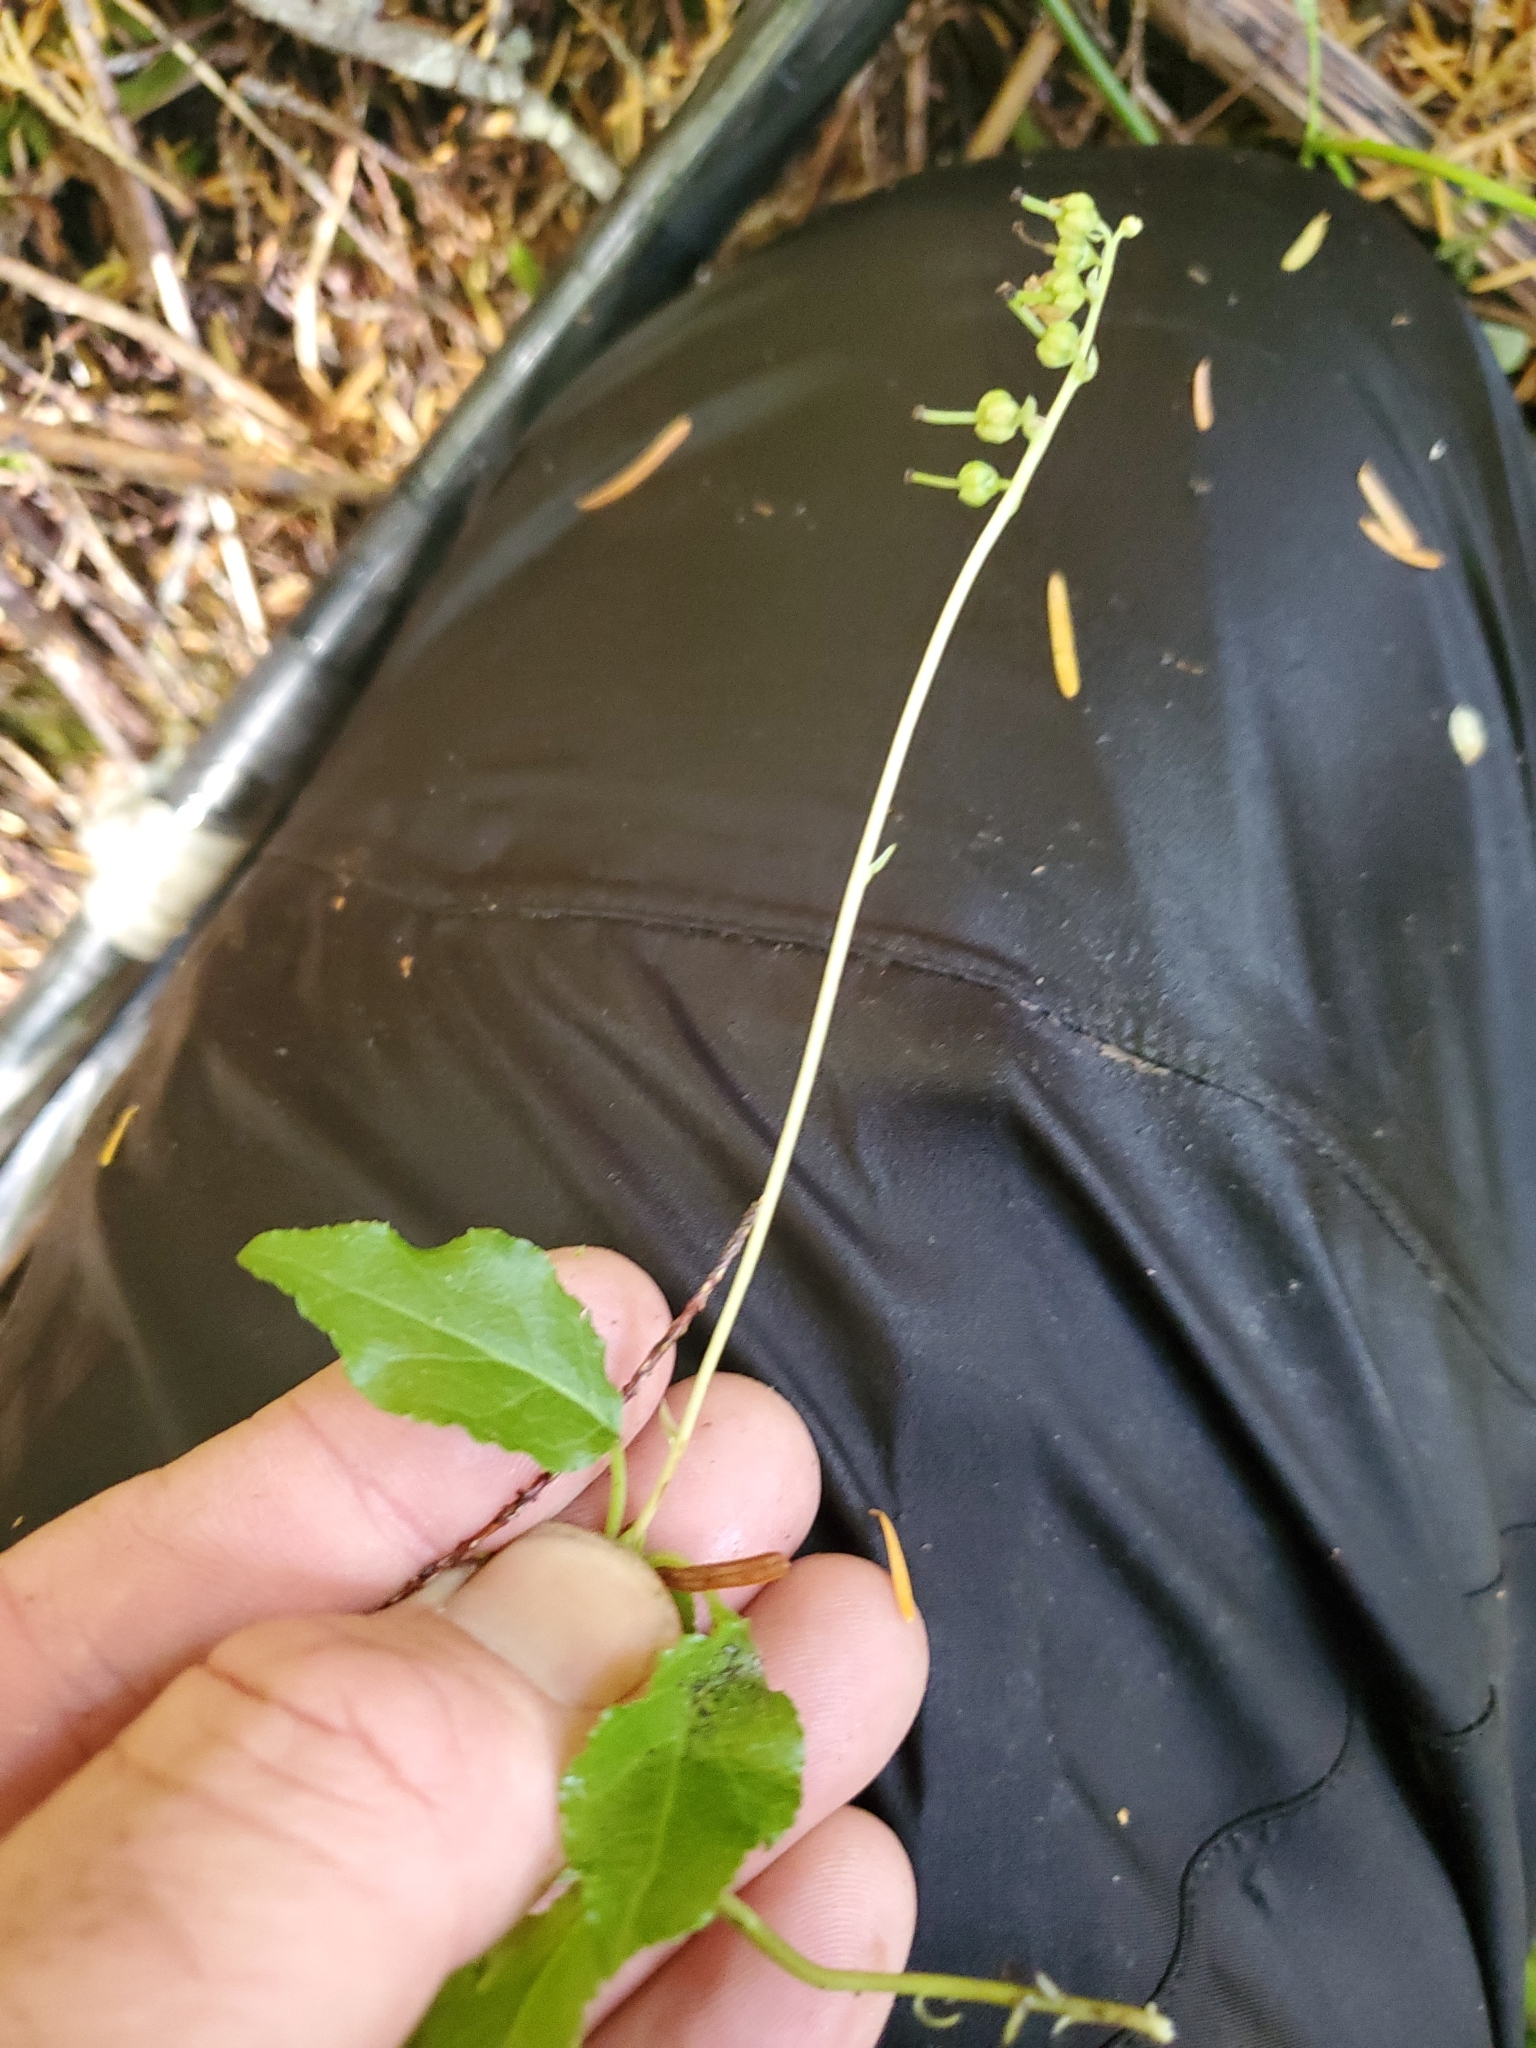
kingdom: Plantae
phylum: Tracheophyta
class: Magnoliopsida
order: Ericales
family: Ericaceae
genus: Orthilia
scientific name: Orthilia secunda
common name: One-sided orthilia
